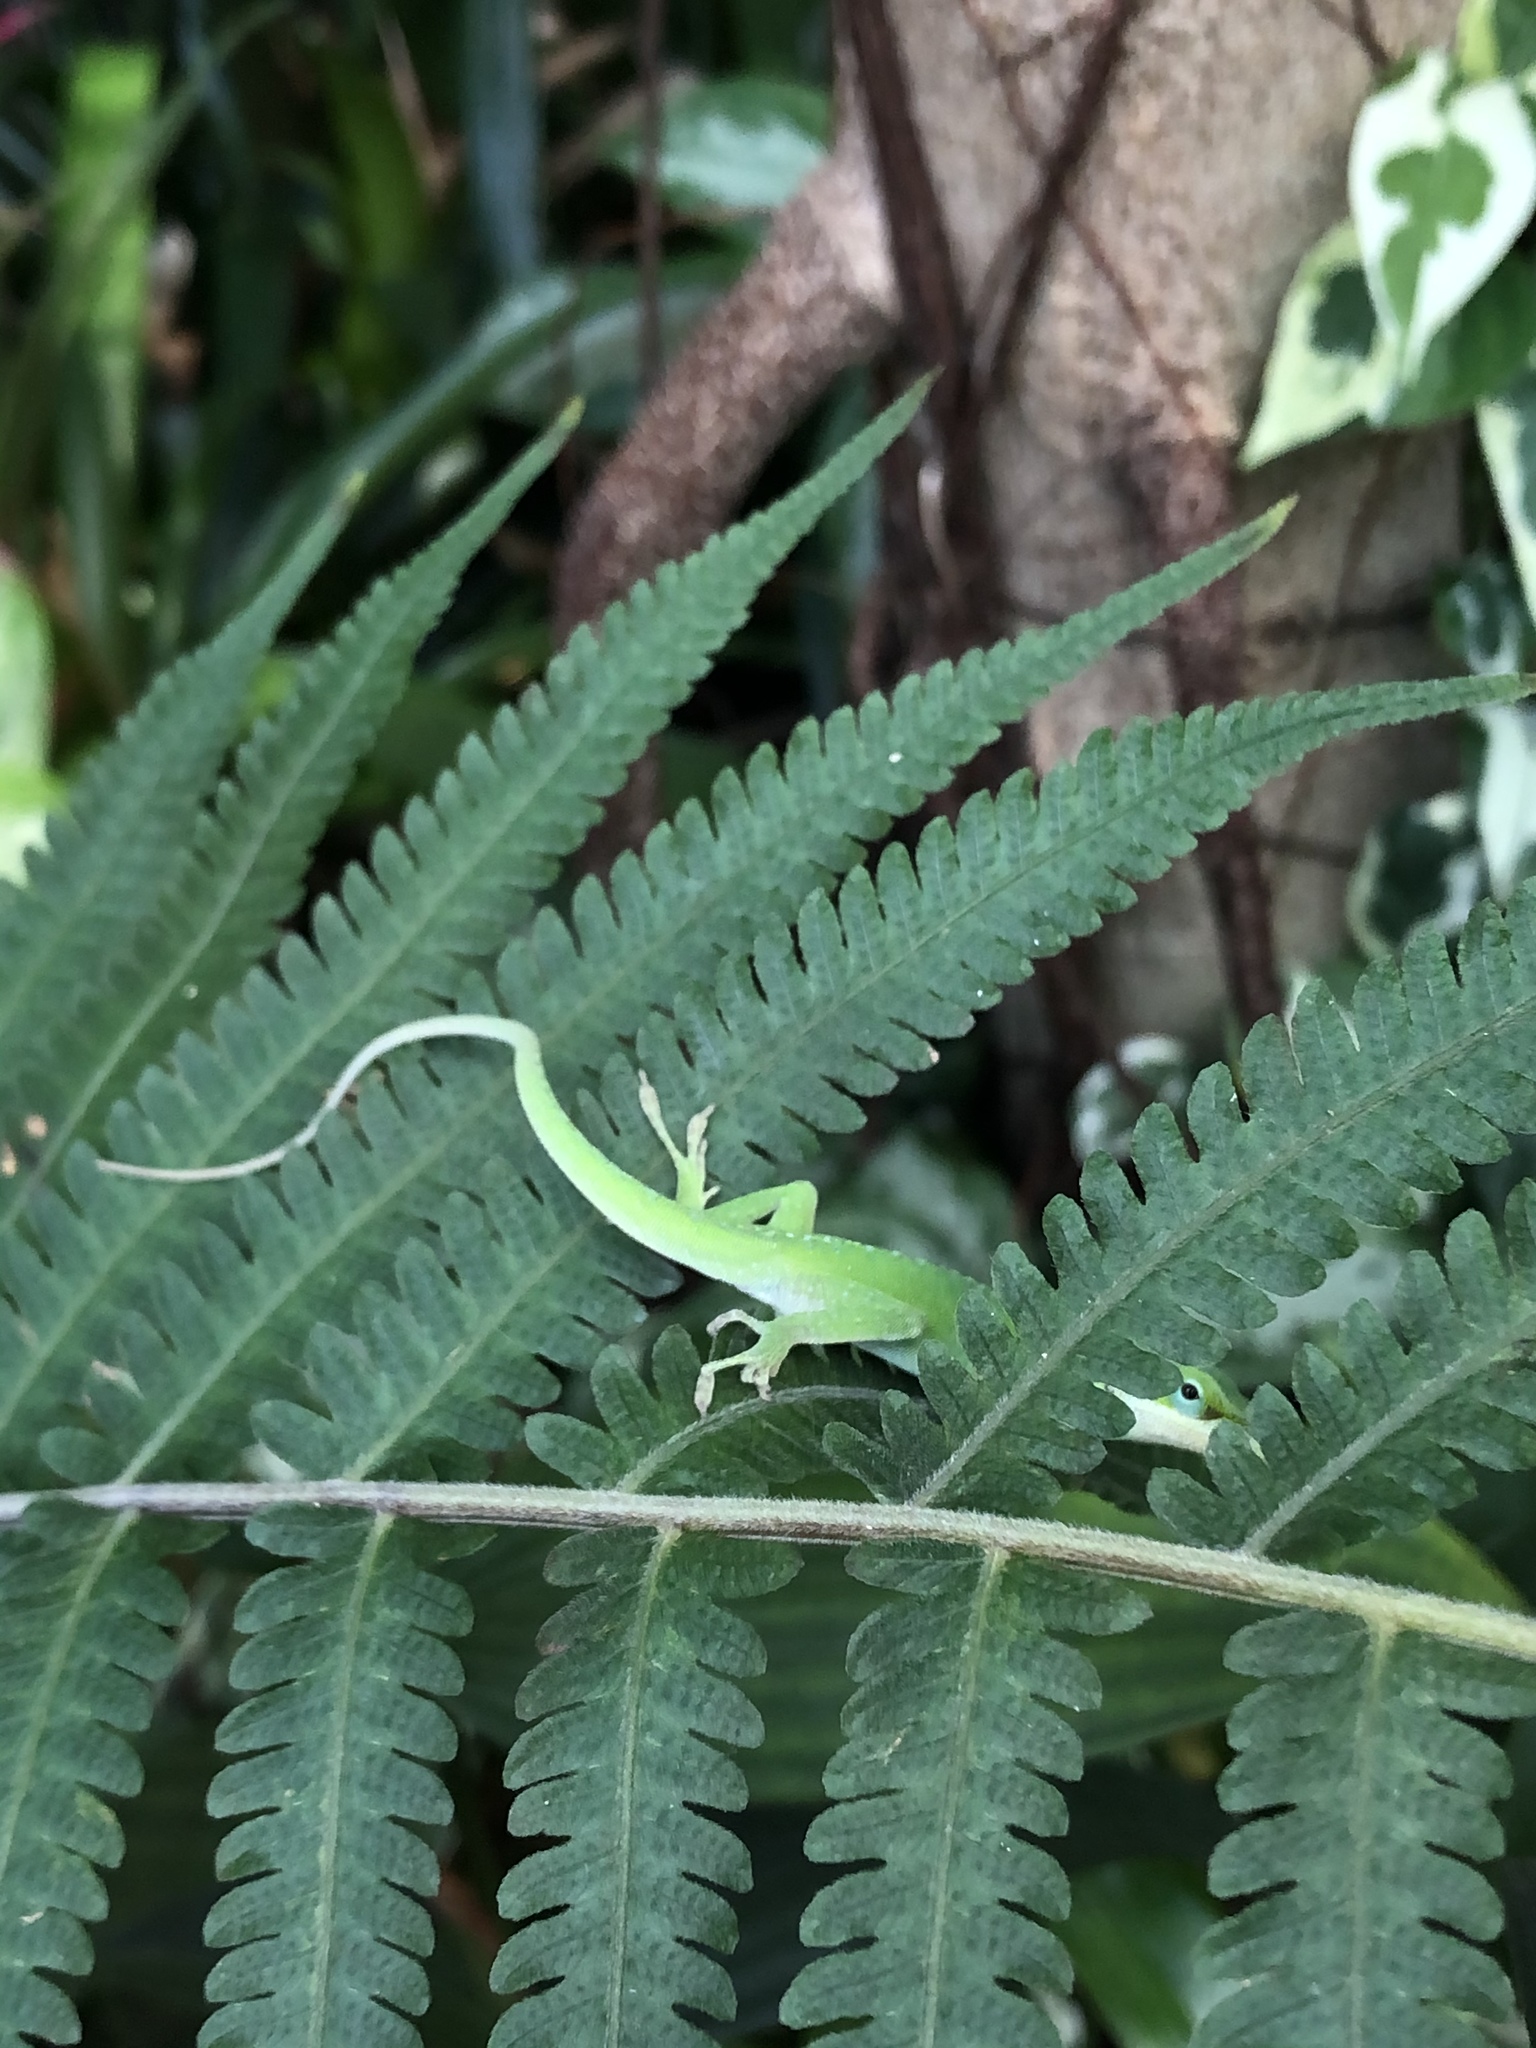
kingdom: Animalia
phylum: Chordata
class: Squamata
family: Dactyloidae
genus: Anolis
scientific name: Anolis carolinensis
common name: Green anole
